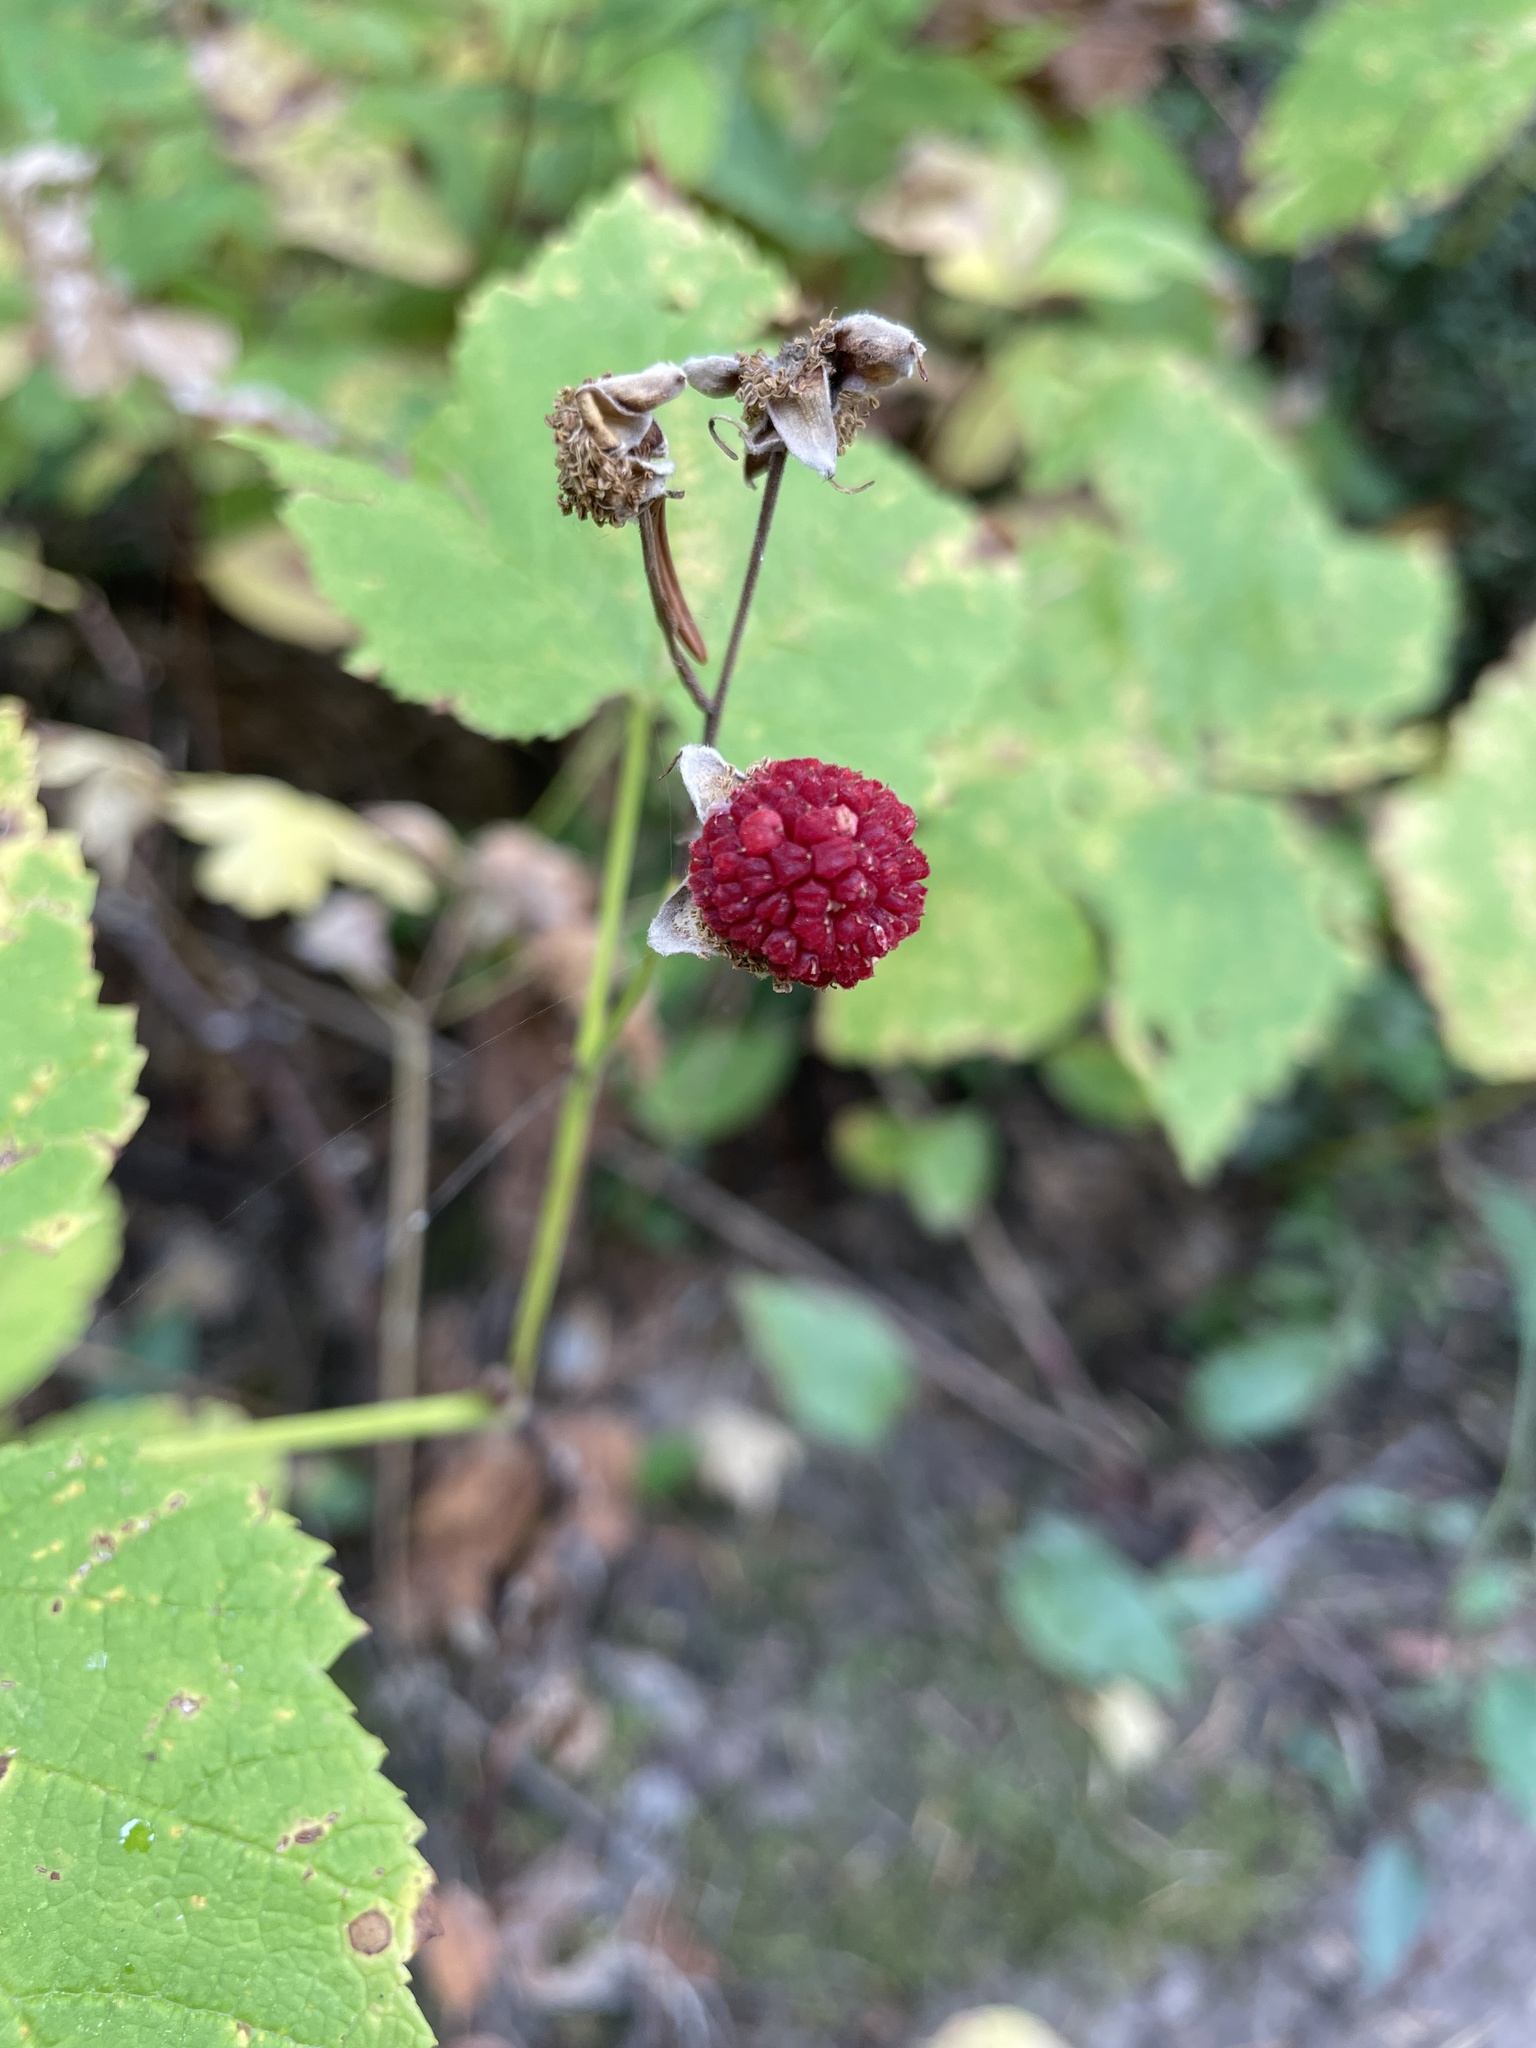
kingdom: Plantae
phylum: Tracheophyta
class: Magnoliopsida
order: Rosales
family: Rosaceae
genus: Rubus
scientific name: Rubus parviflorus
